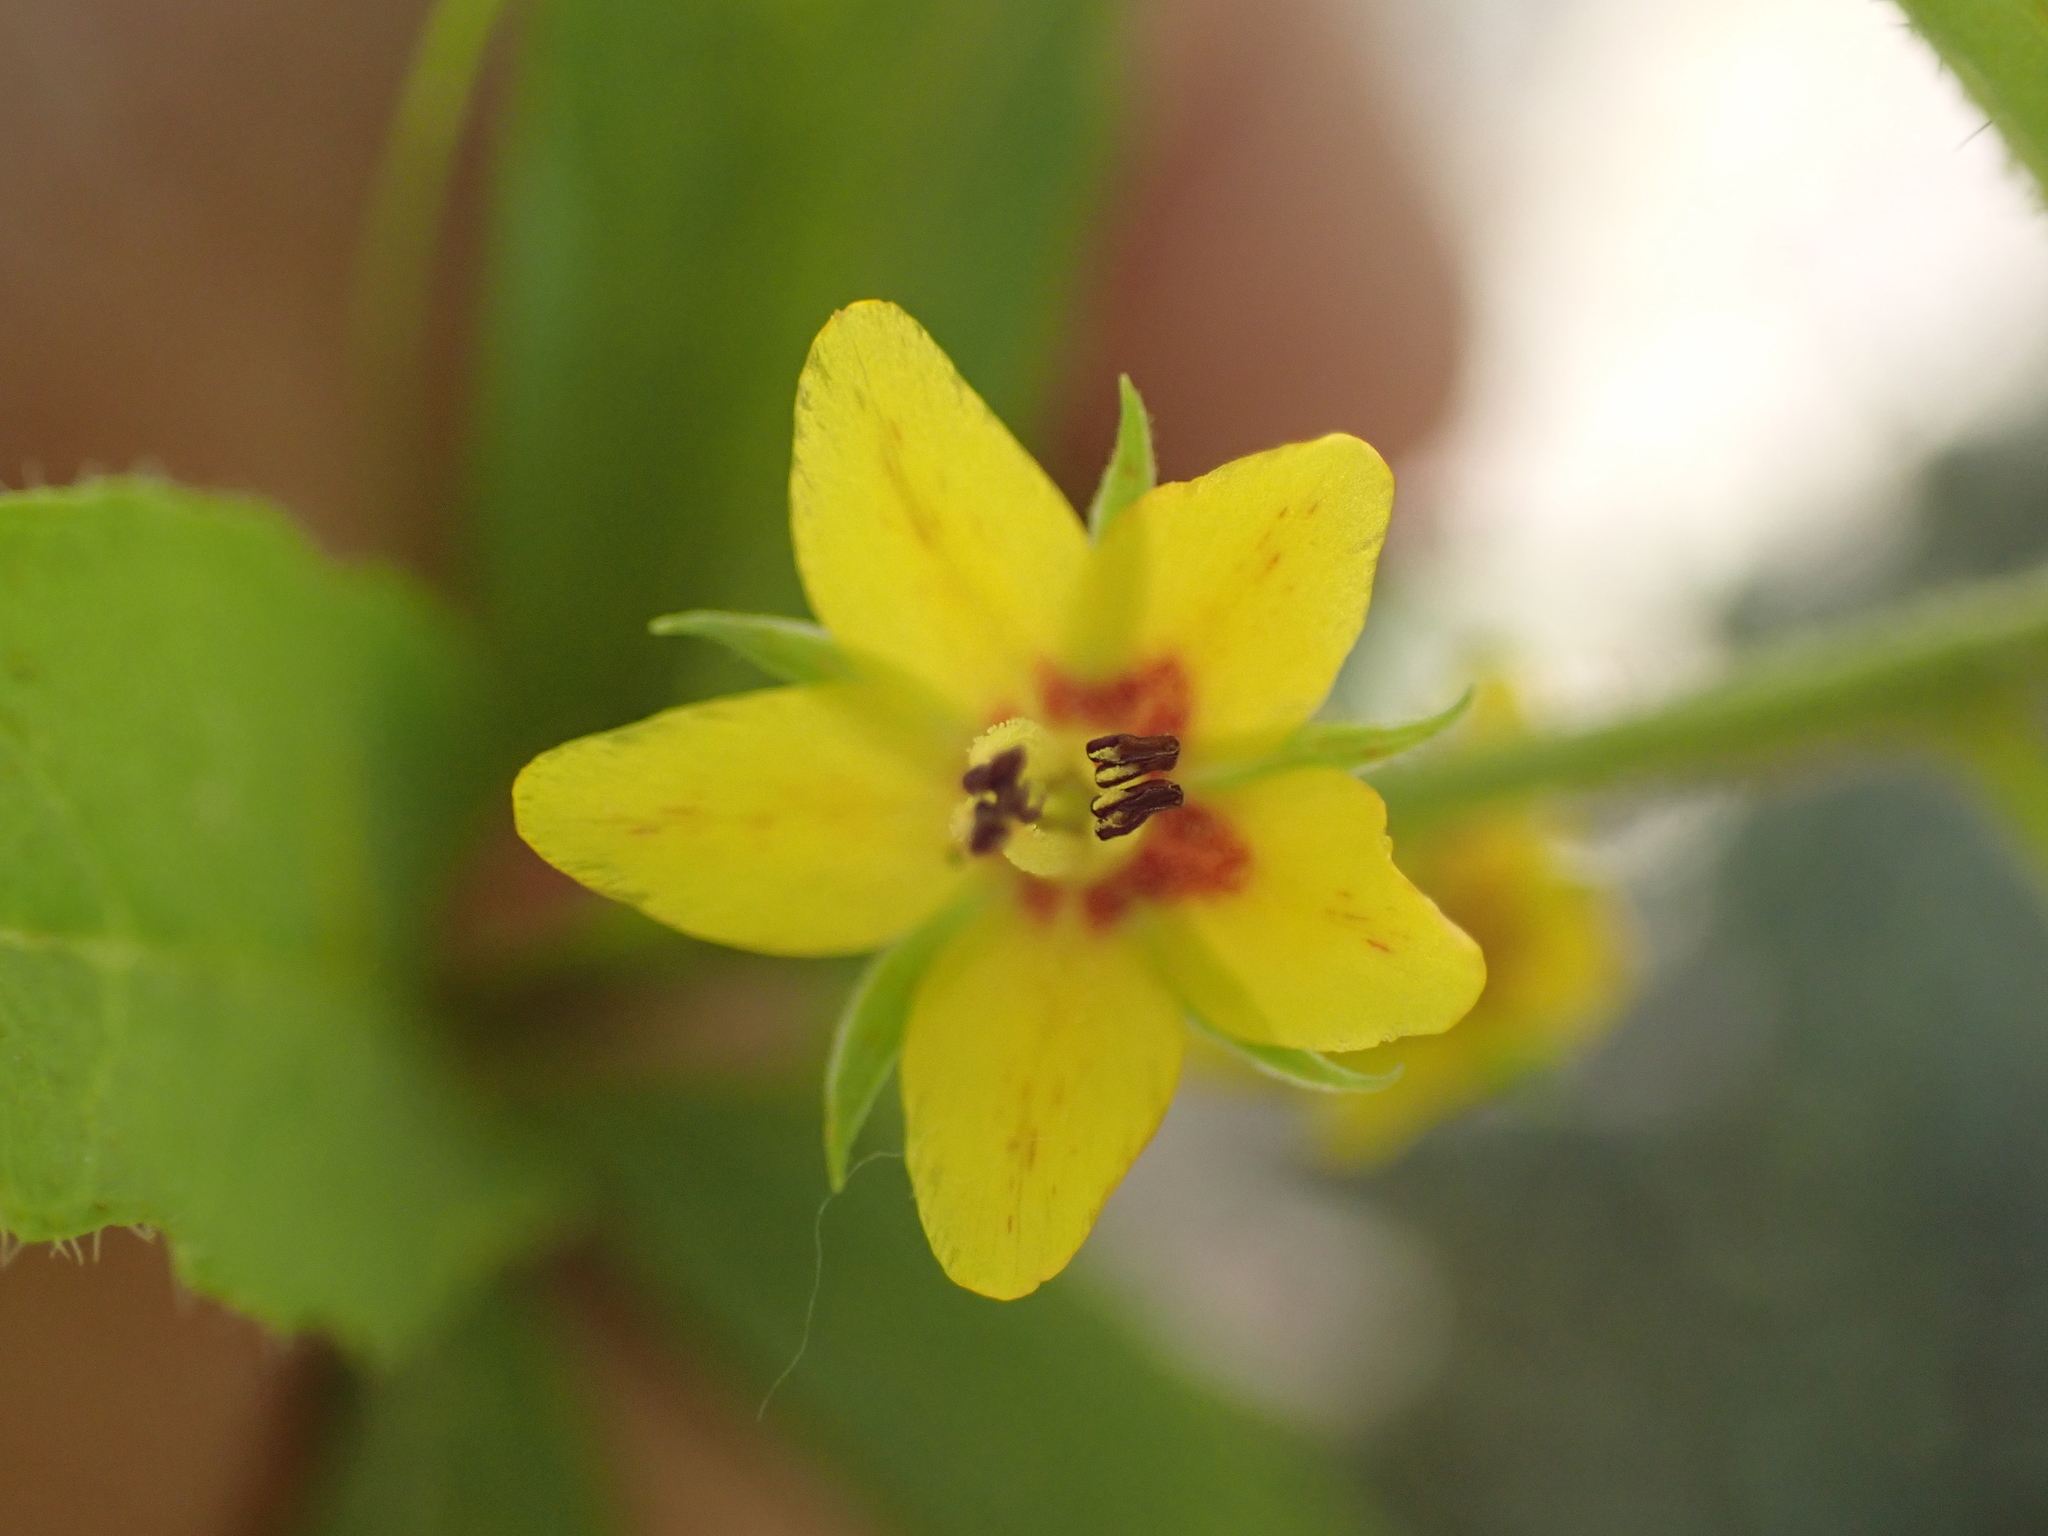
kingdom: Plantae
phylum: Tracheophyta
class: Magnoliopsida
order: Ericales
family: Primulaceae
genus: Lysimachia
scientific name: Lysimachia quadrifolia
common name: Whorled loosestrife
